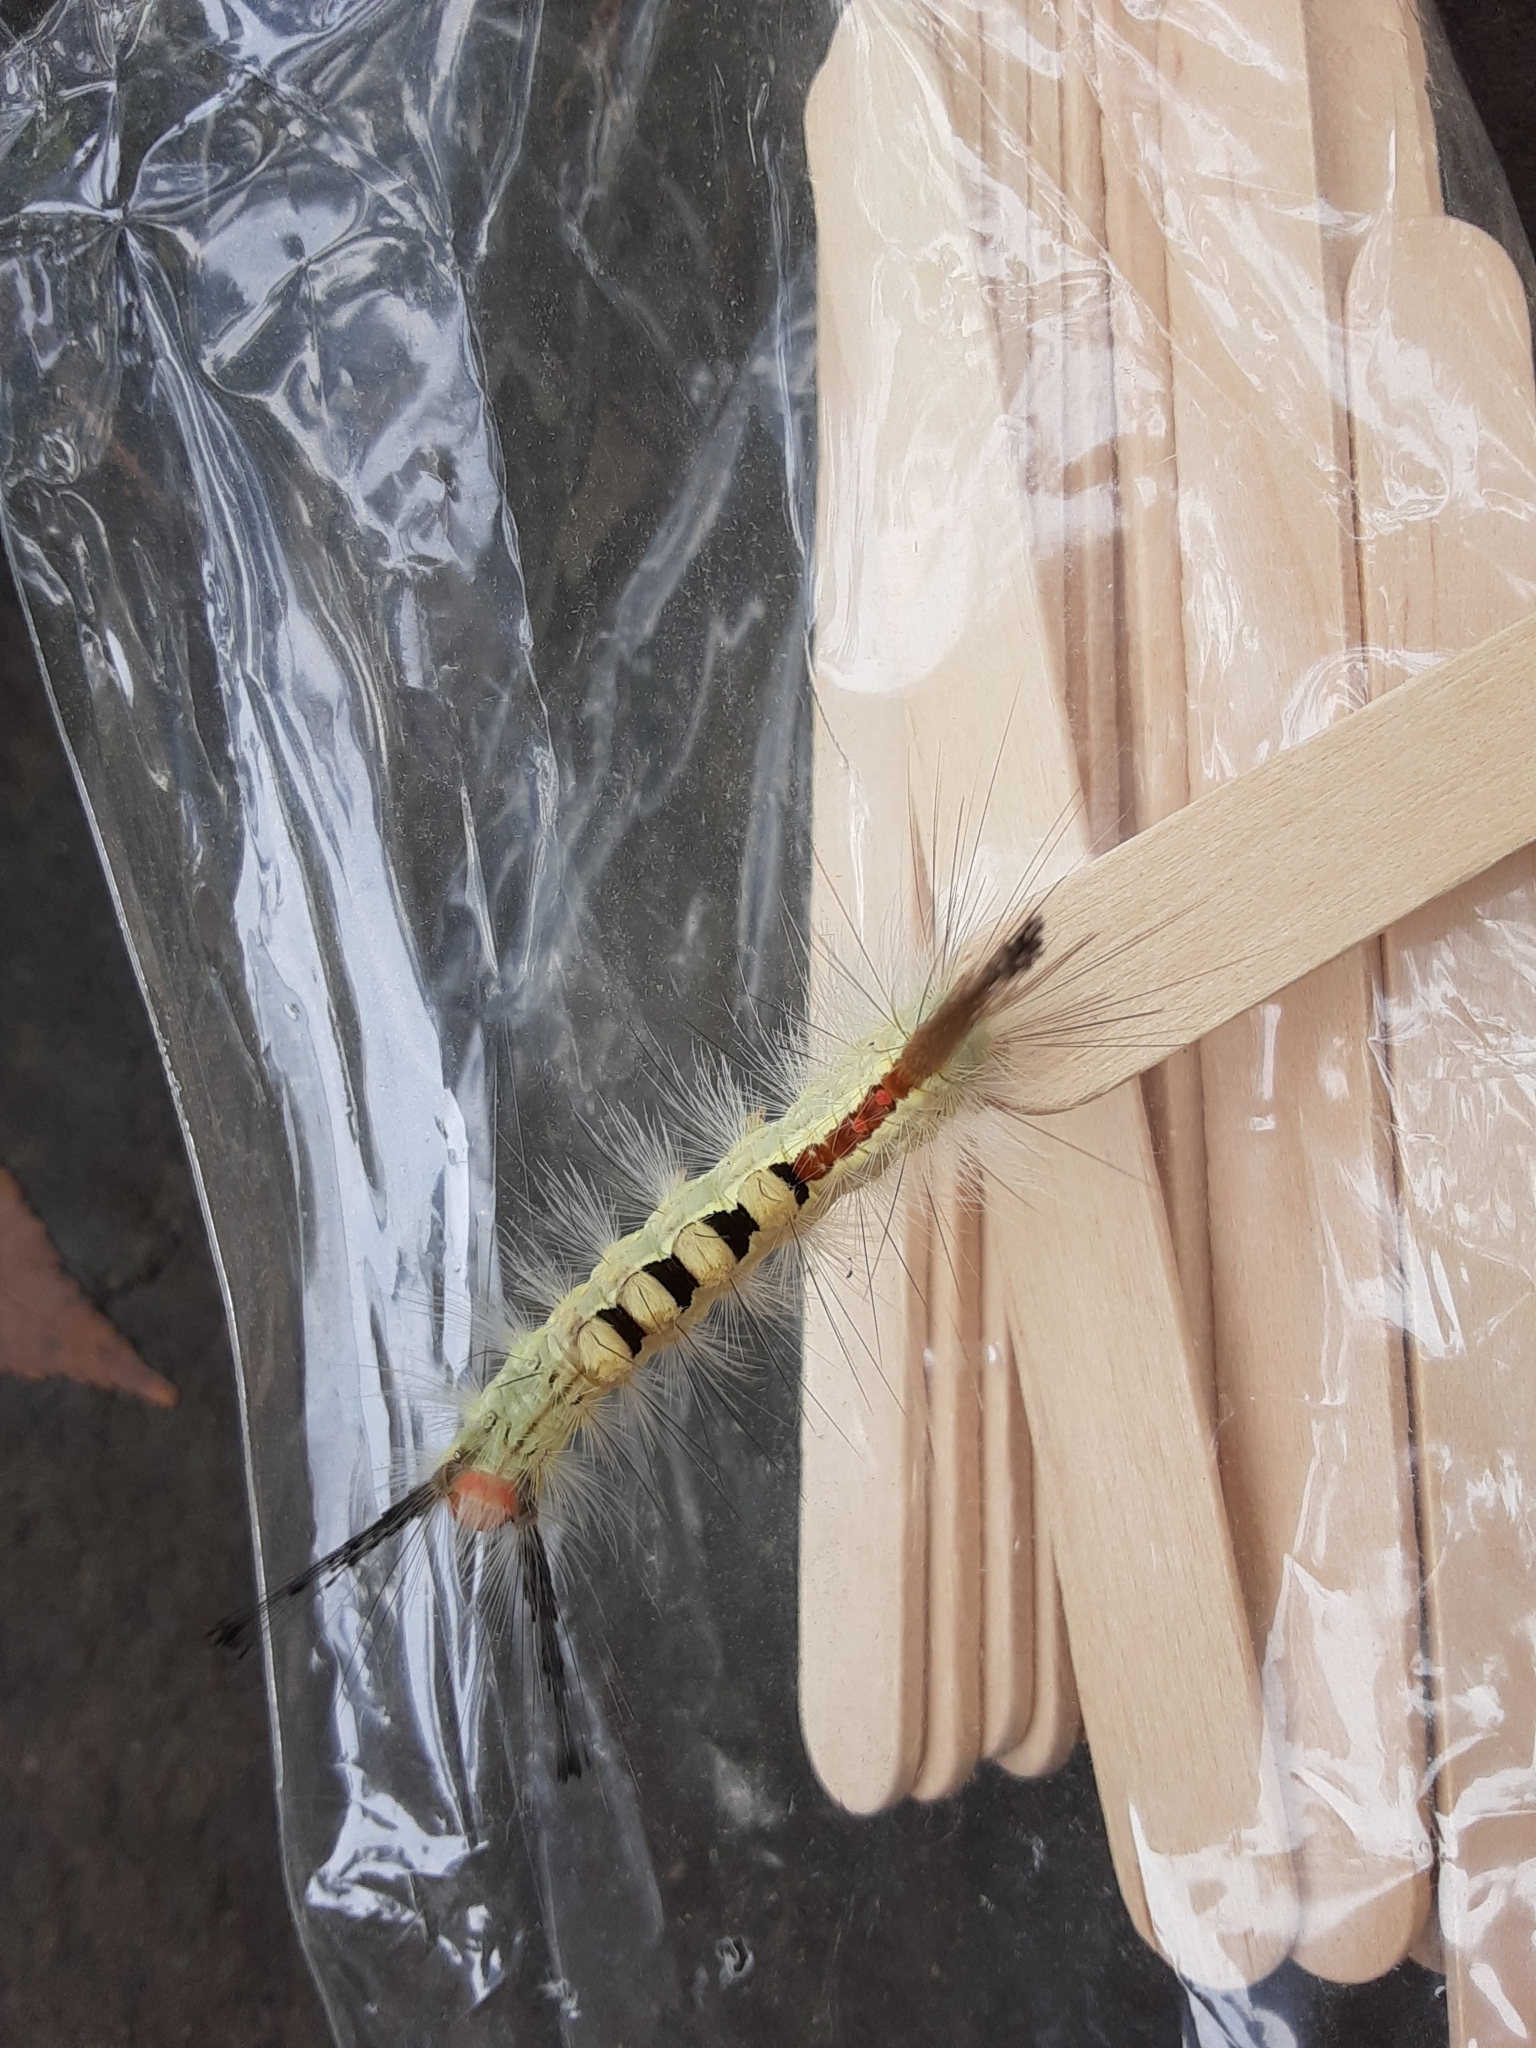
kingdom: Animalia
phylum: Arthropoda
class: Insecta
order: Lepidoptera
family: Erebidae
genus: Orgyia
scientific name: Orgyia leucostigma
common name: White-marked tussock moth
